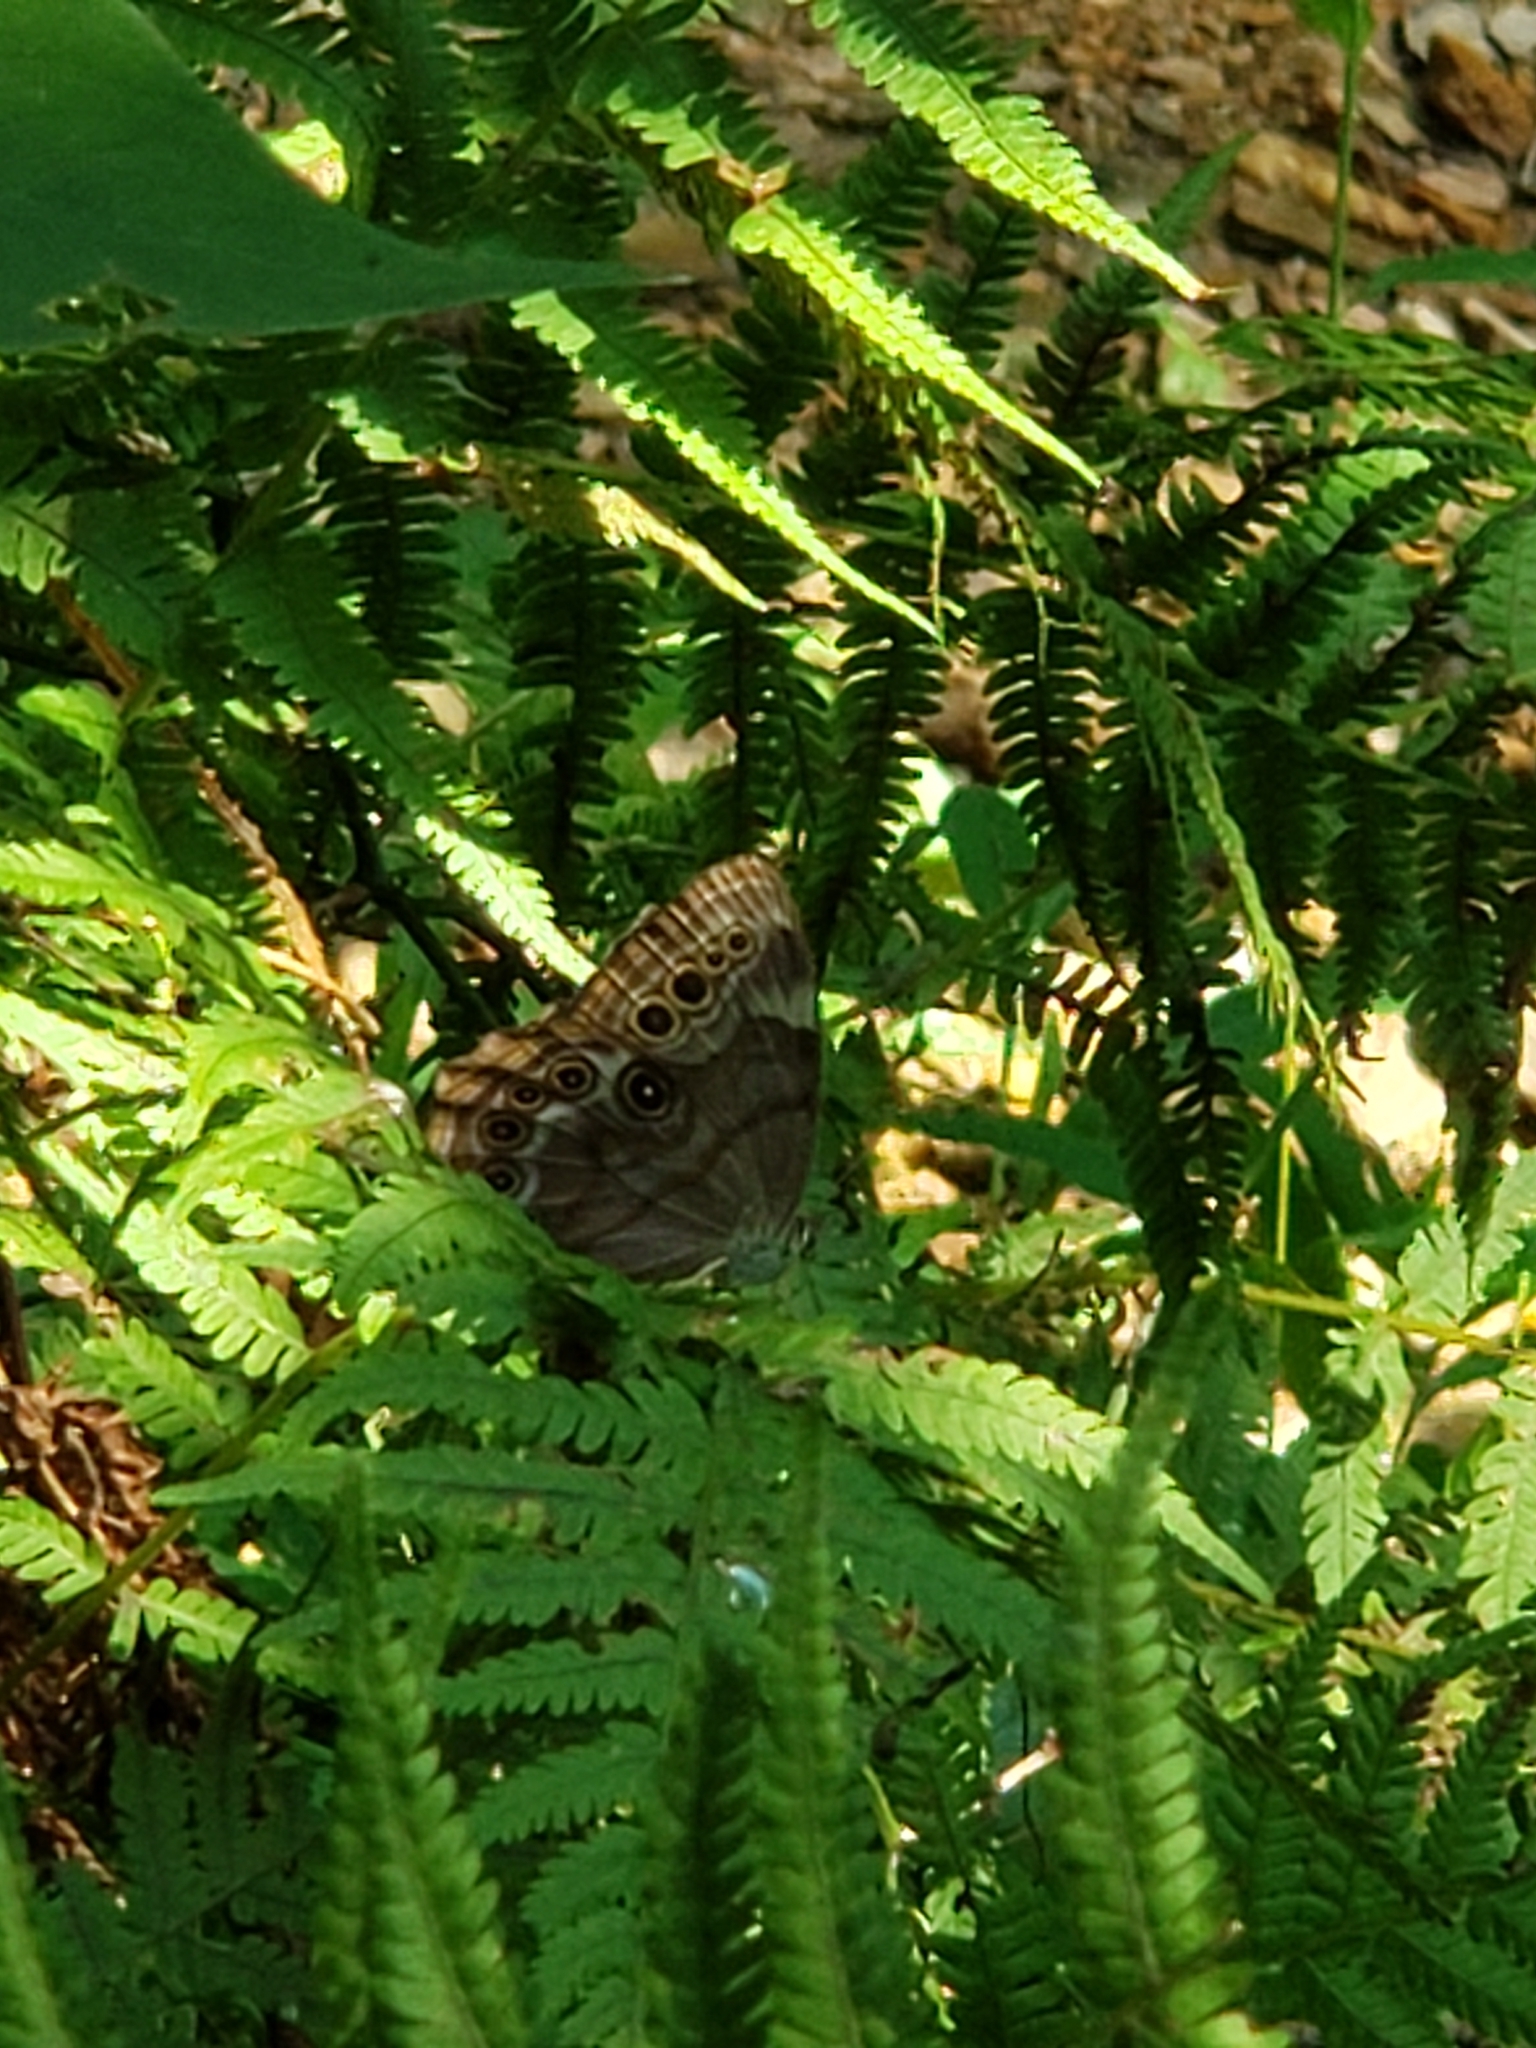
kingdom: Animalia
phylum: Arthropoda
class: Insecta
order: Lepidoptera
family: Nymphalidae
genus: Lethe
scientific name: Lethe anthedon
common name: Northern pearly-eye
